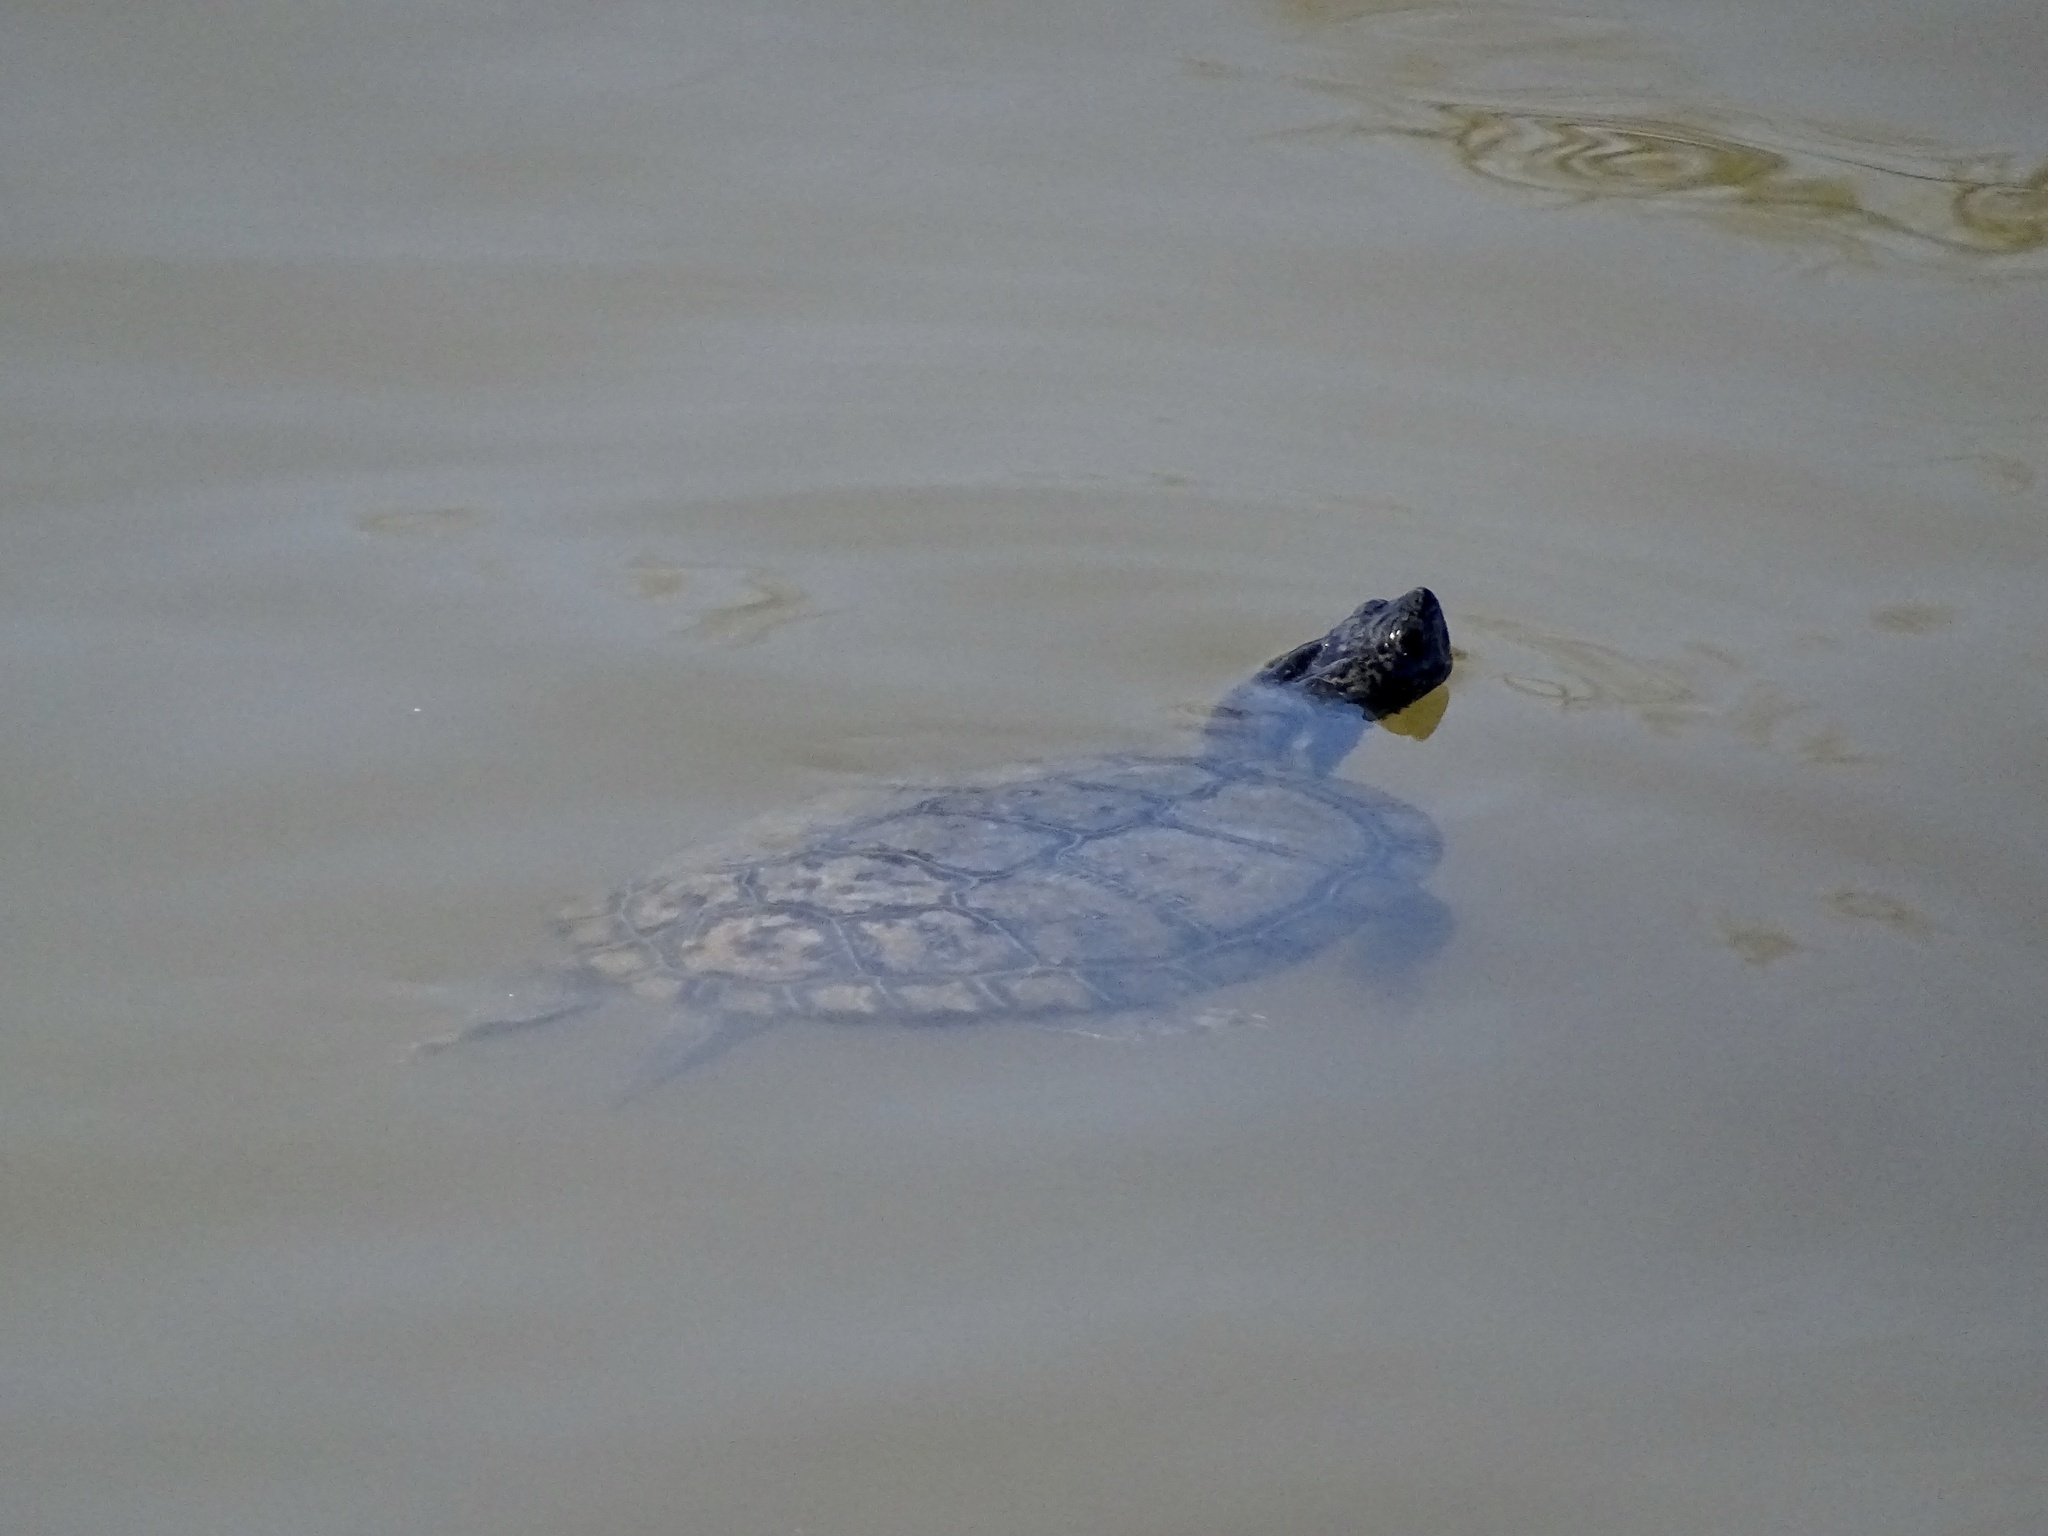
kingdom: Animalia
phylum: Chordata
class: Testudines
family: Emydidae
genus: Trachemys
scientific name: Trachemys scripta
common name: Slider
